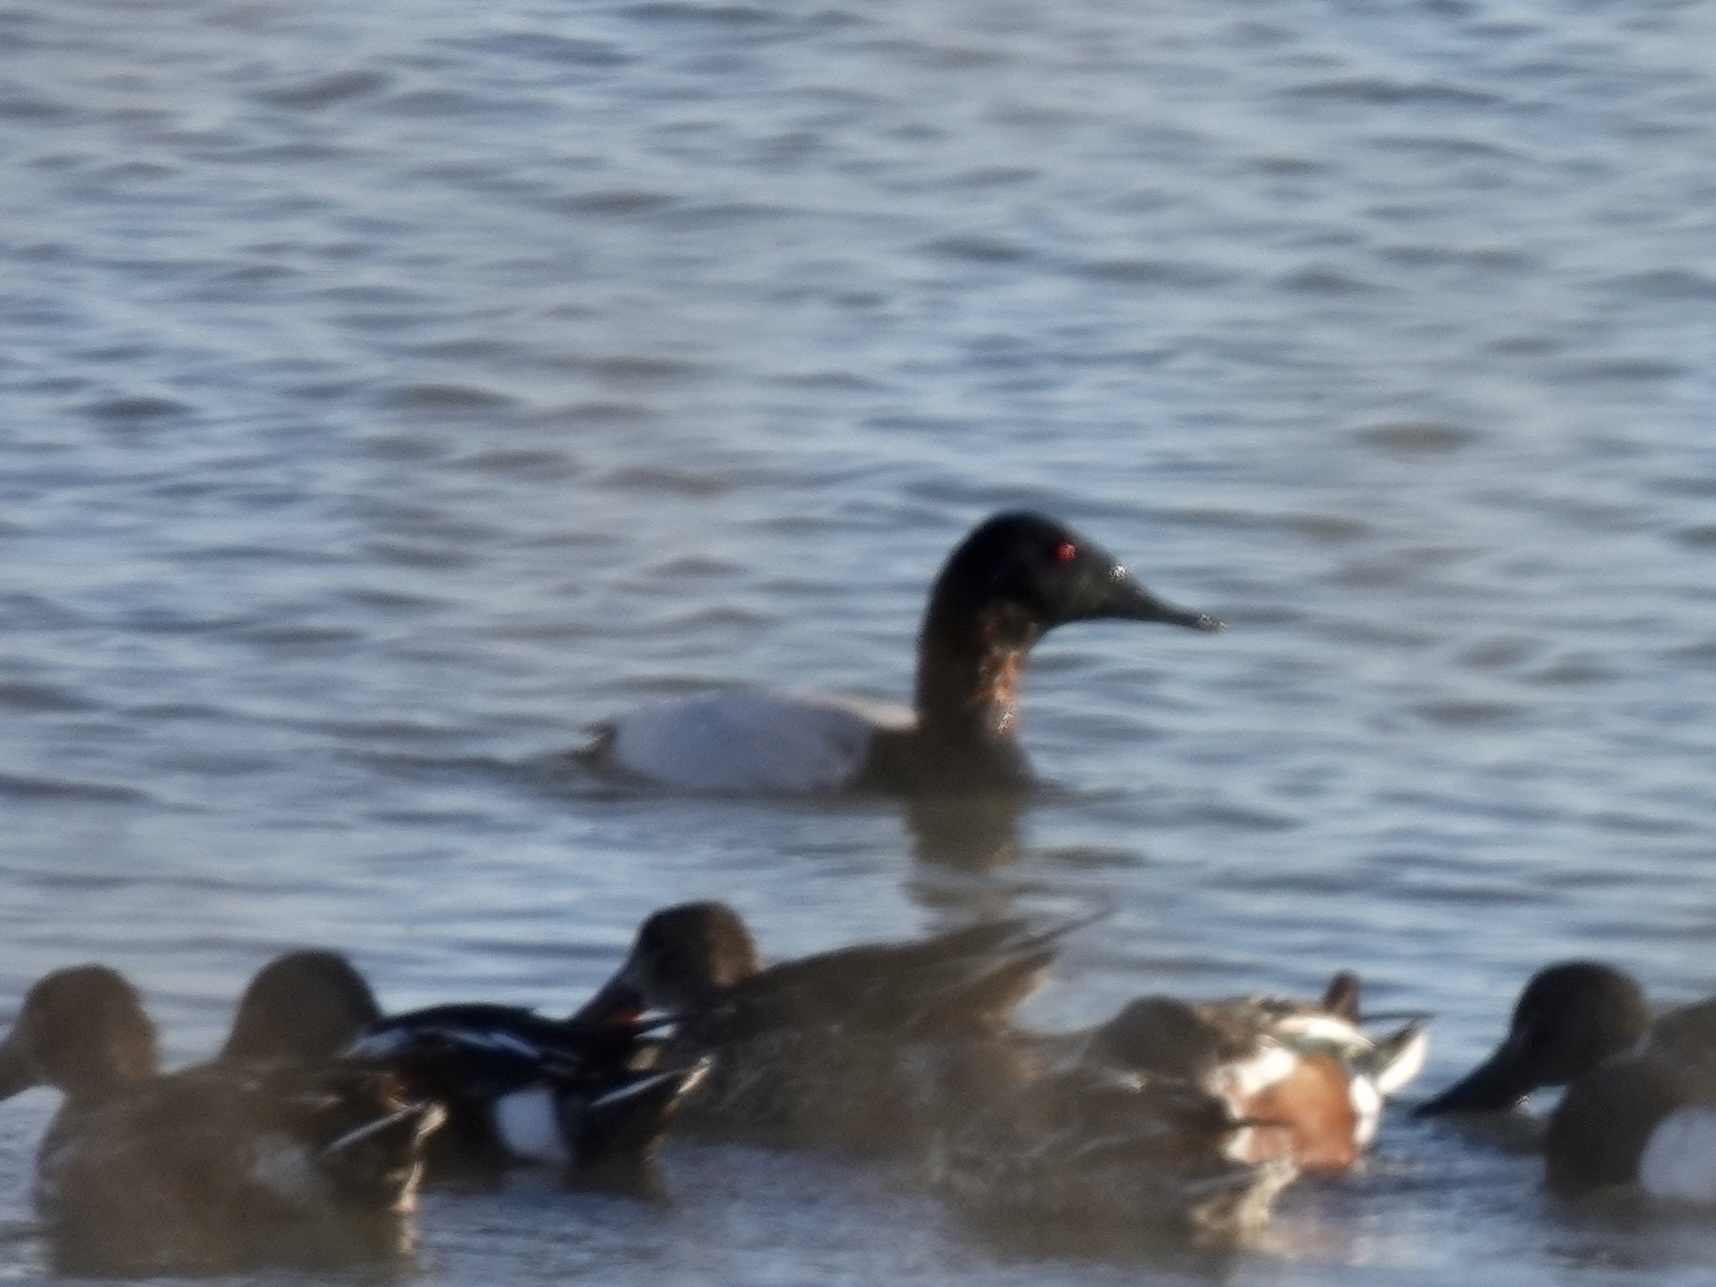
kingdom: Animalia
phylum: Chordata
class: Aves
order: Anseriformes
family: Anatidae
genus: Aythya
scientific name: Aythya valisineria
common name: Canvasback
